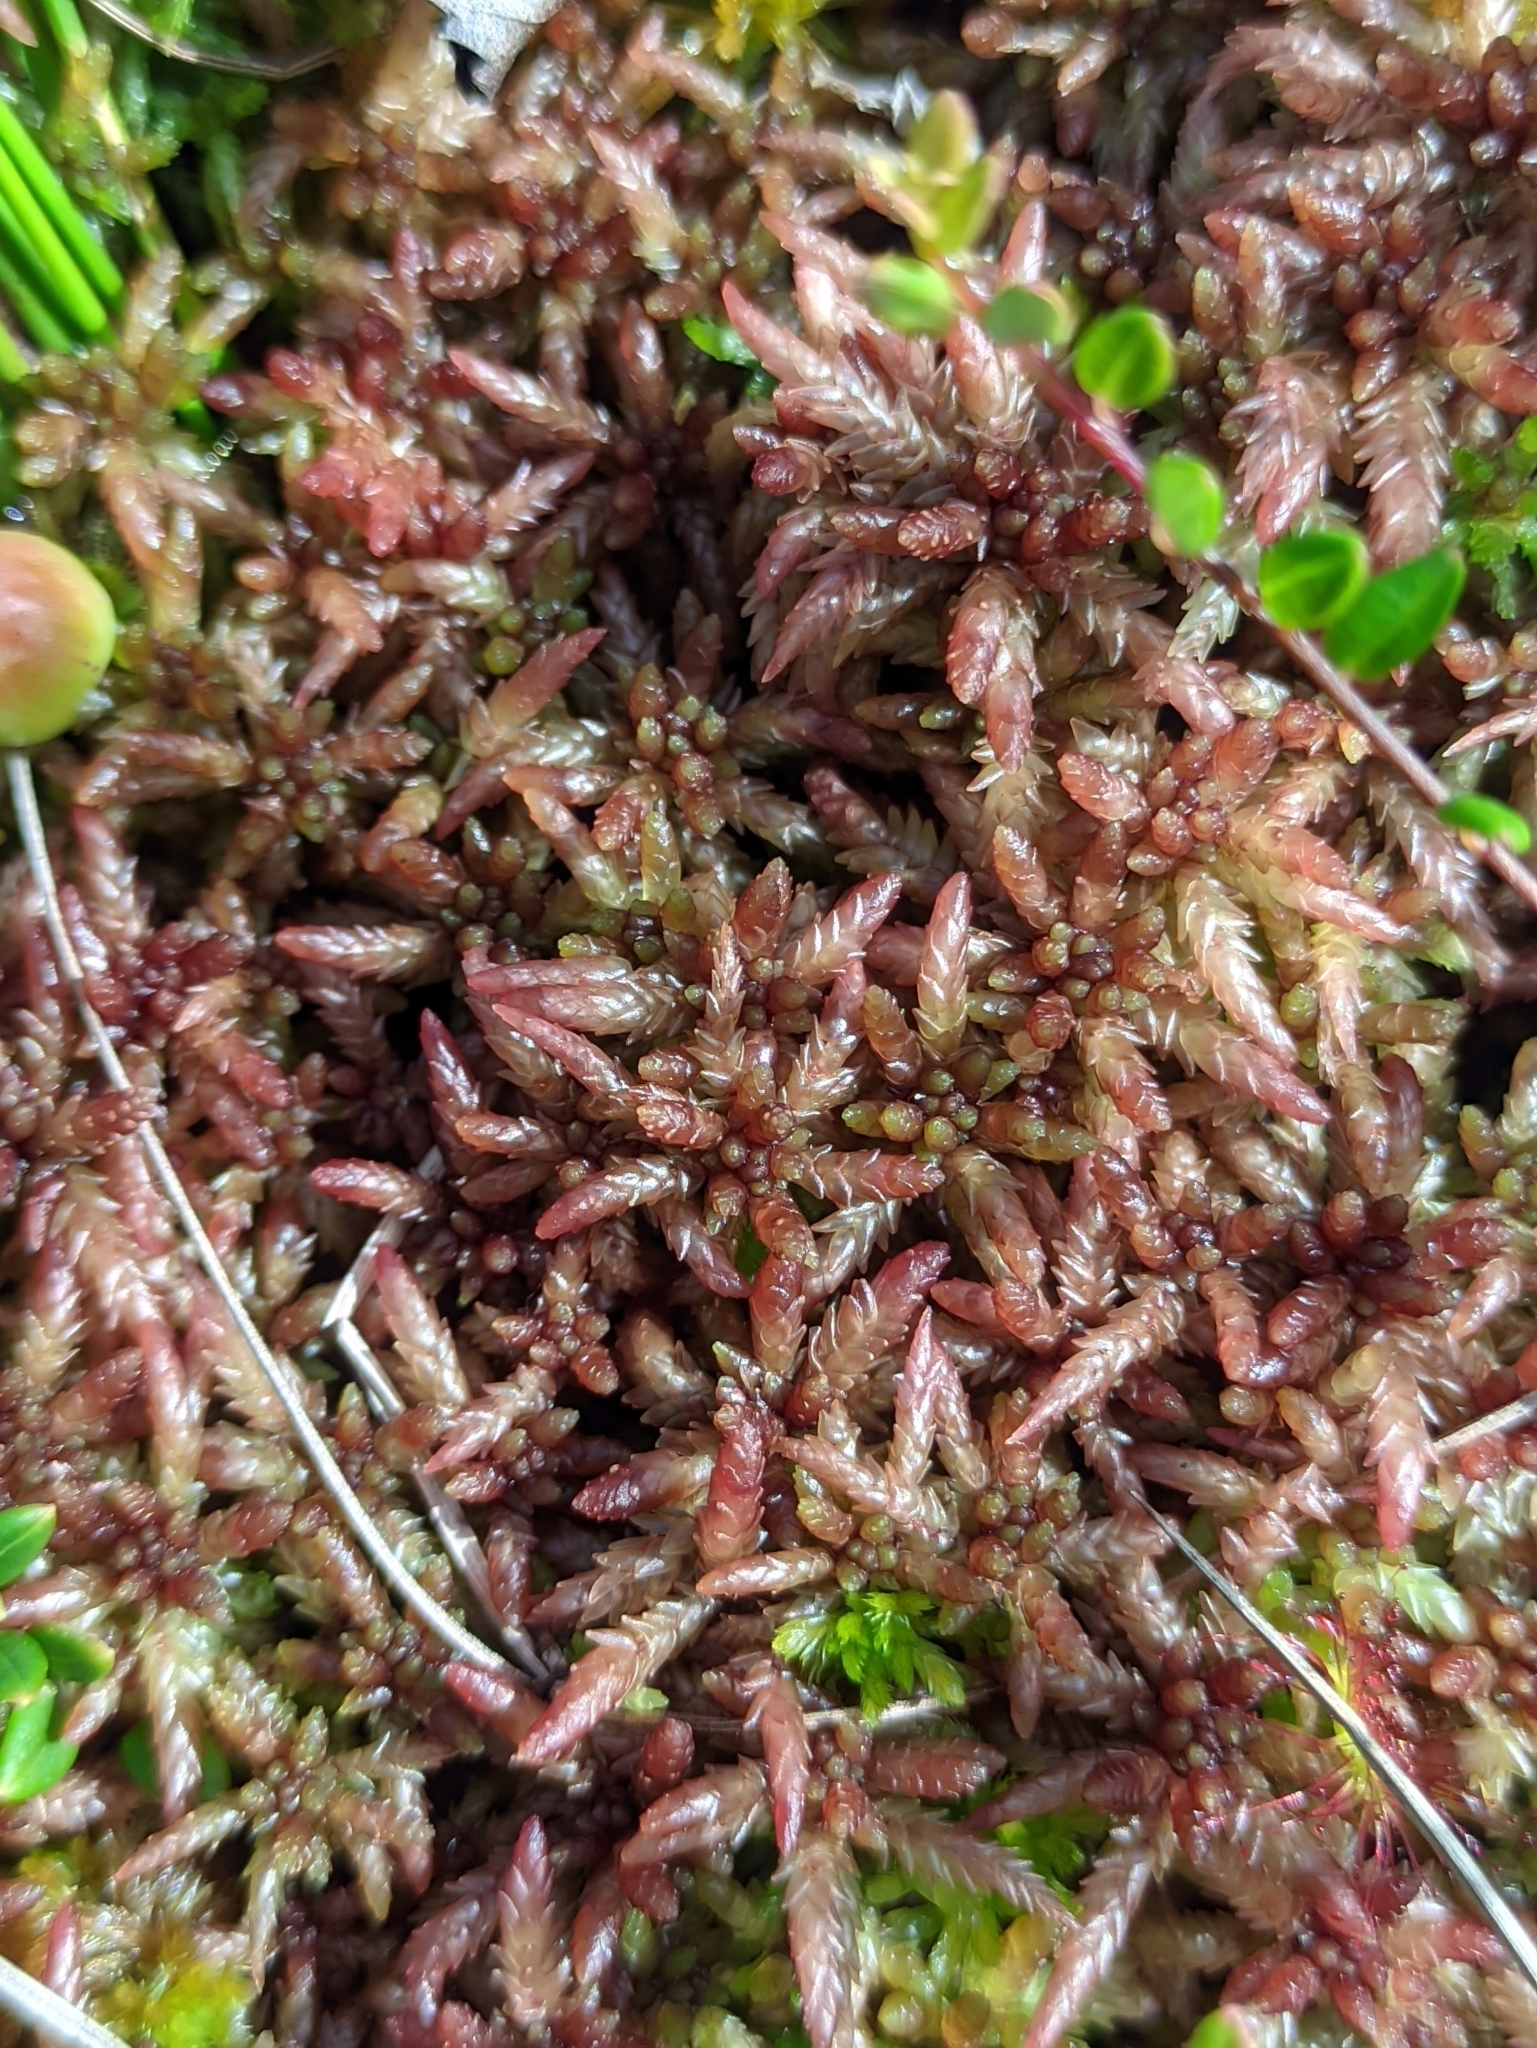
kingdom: Plantae
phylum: Bryophyta
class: Sphagnopsida
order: Sphagnales
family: Sphagnaceae
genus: Sphagnum
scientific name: Sphagnum divinum
